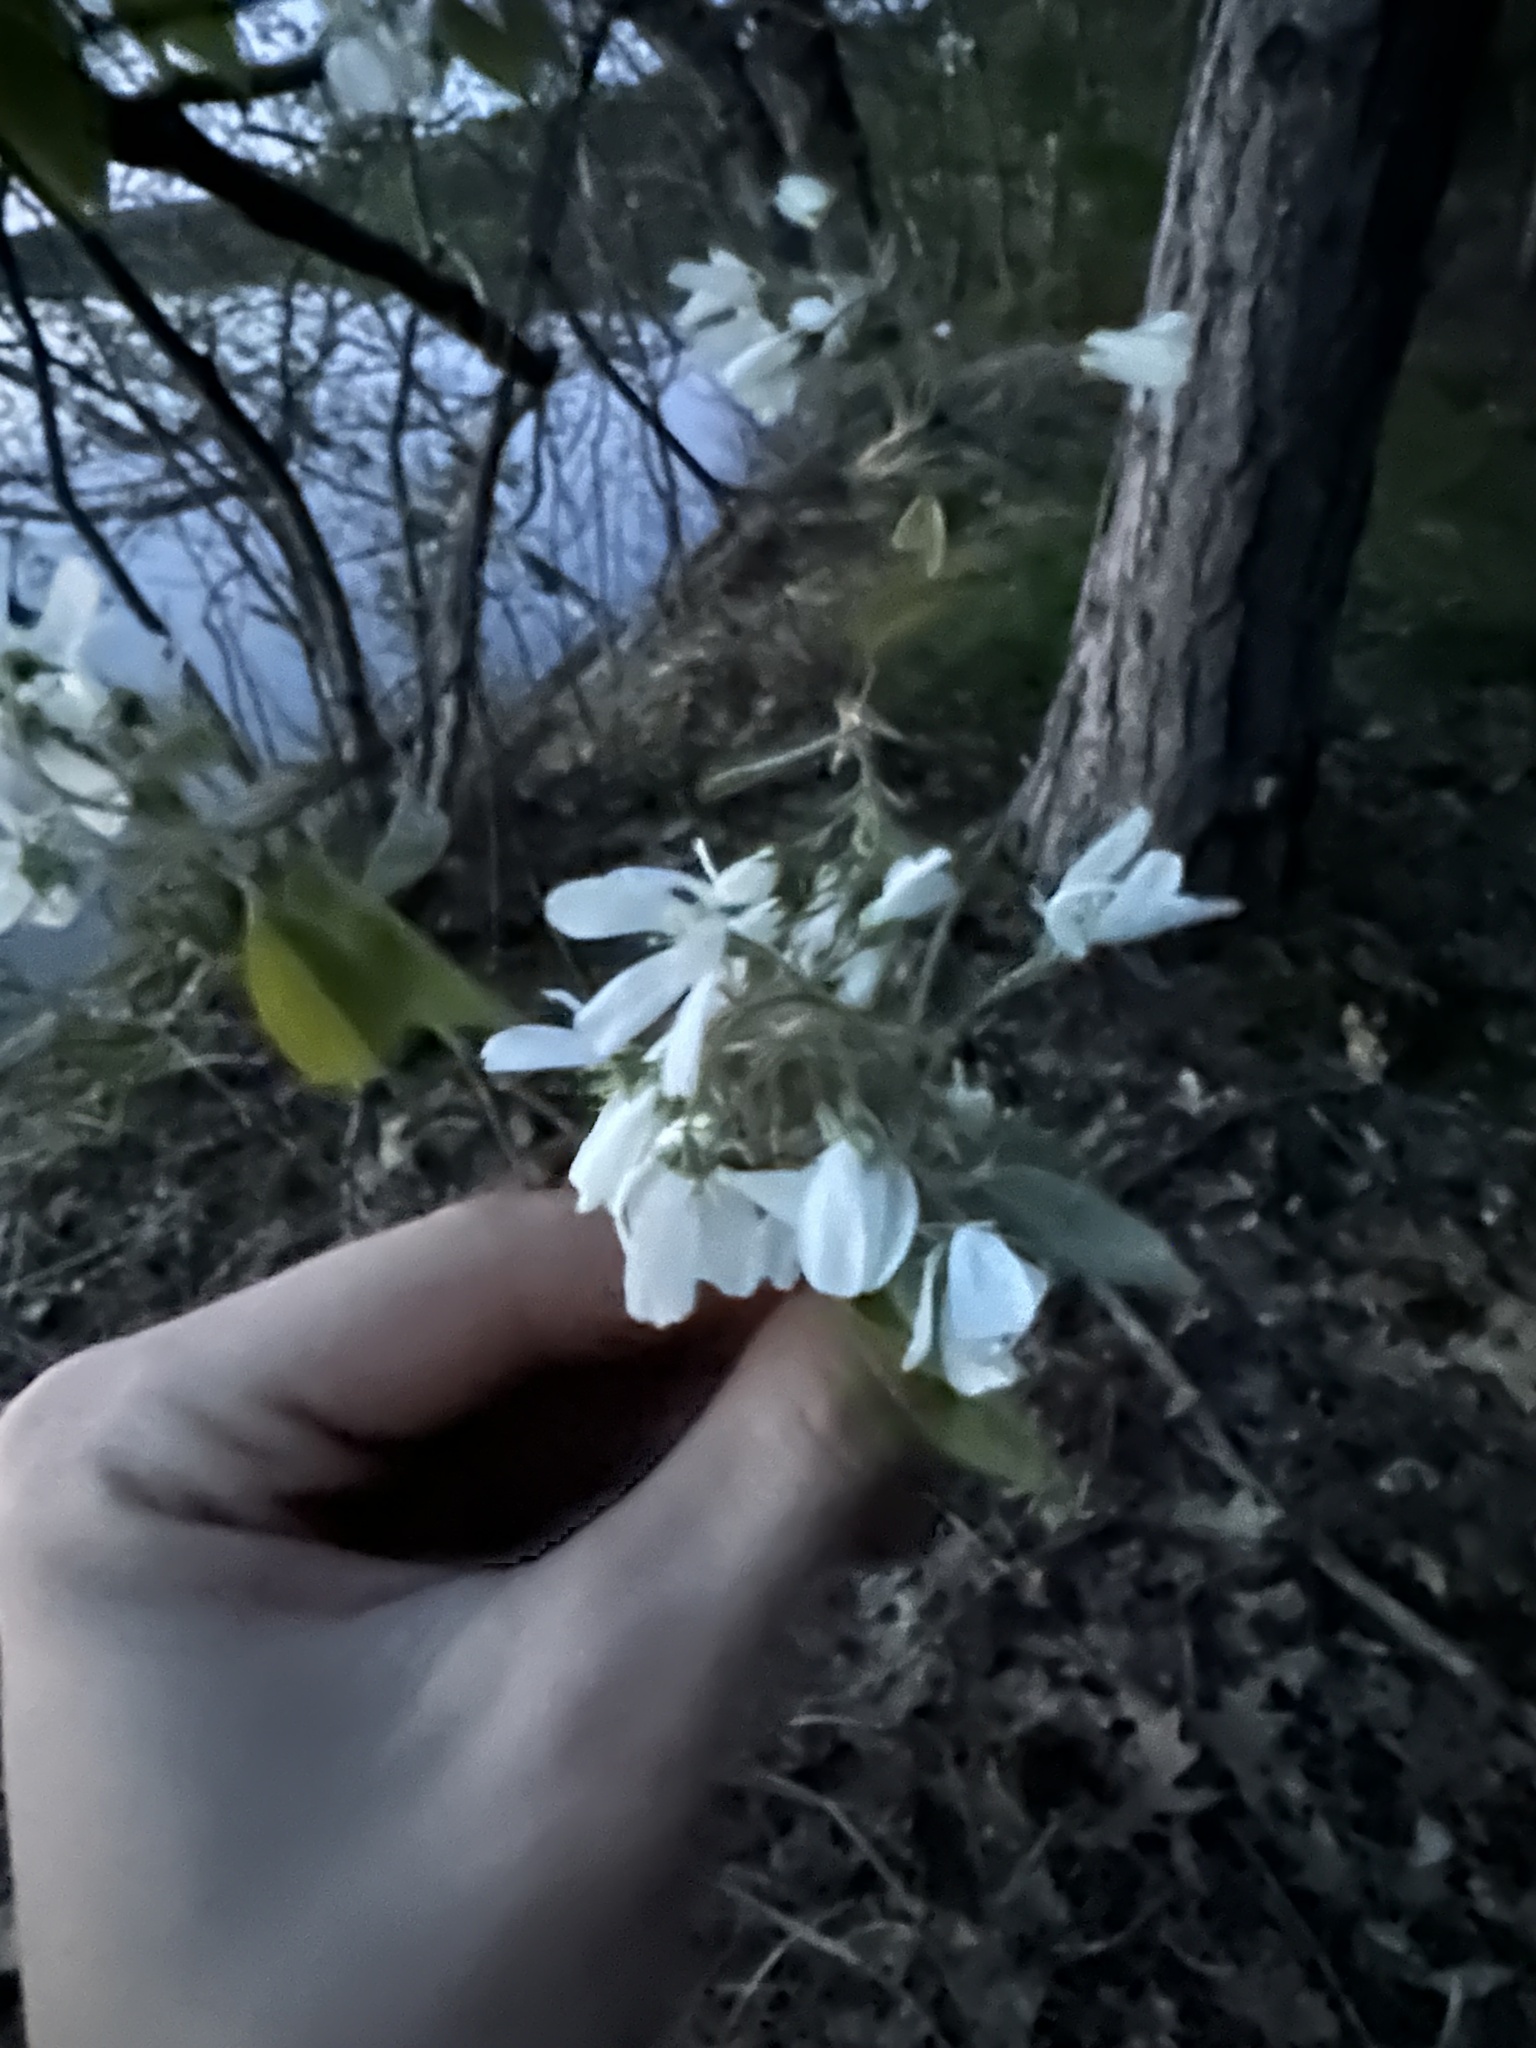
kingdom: Plantae
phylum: Tracheophyta
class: Magnoliopsida
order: Rosales
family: Rosaceae
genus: Amelanchier
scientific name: Amelanchier arborea
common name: Downy serviceberry
